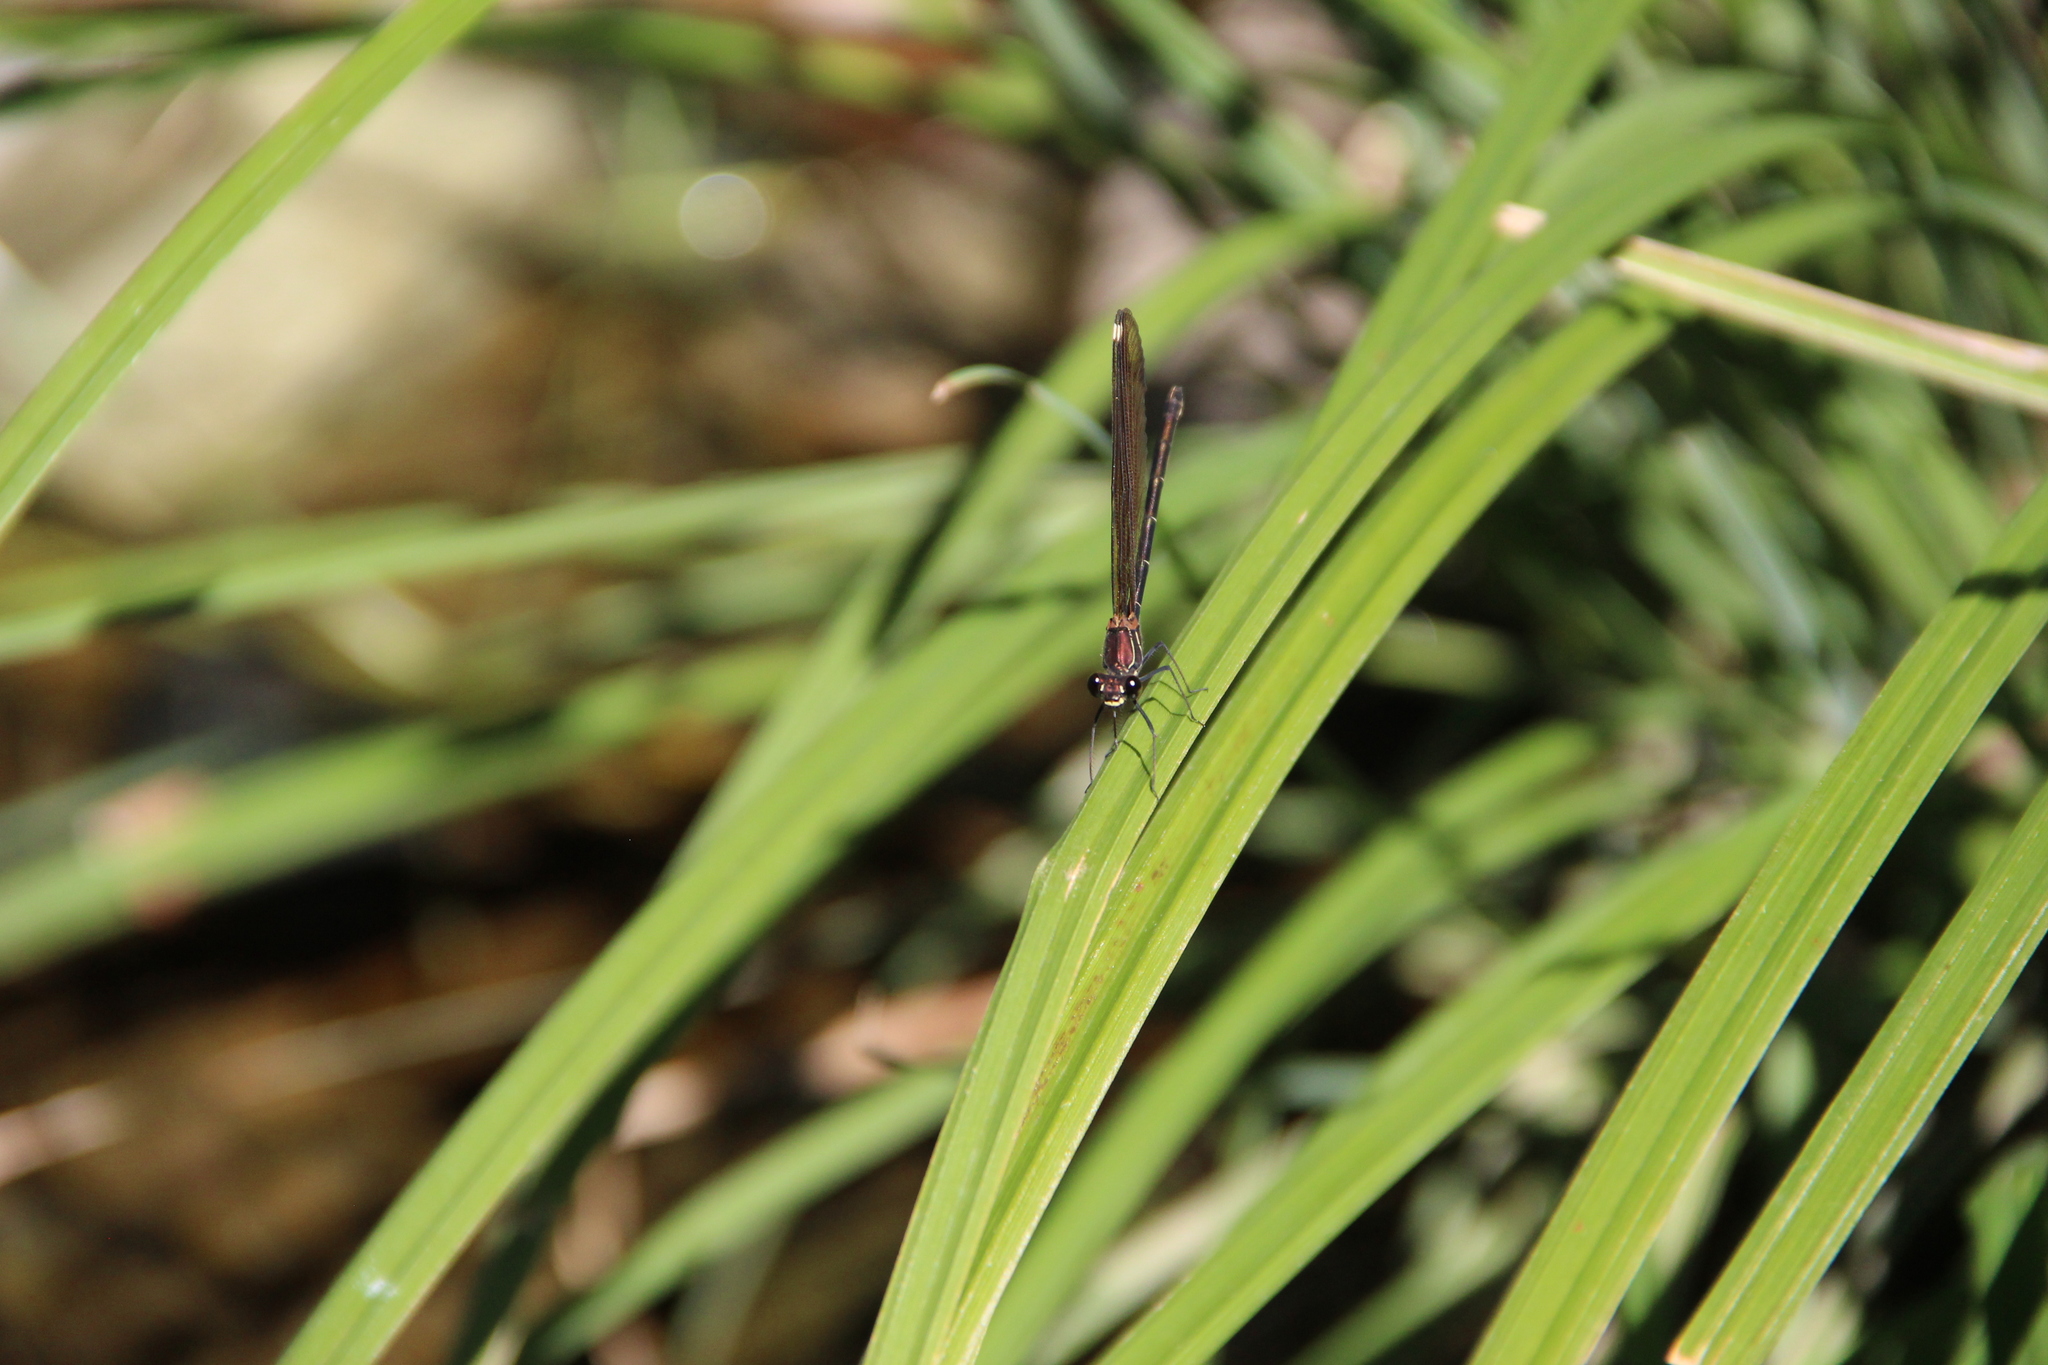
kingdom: Animalia
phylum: Arthropoda
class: Insecta
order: Odonata
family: Calopterygidae
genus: Calopteryx
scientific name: Calopteryx haemorrhoidalis
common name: Copper demoiselle
